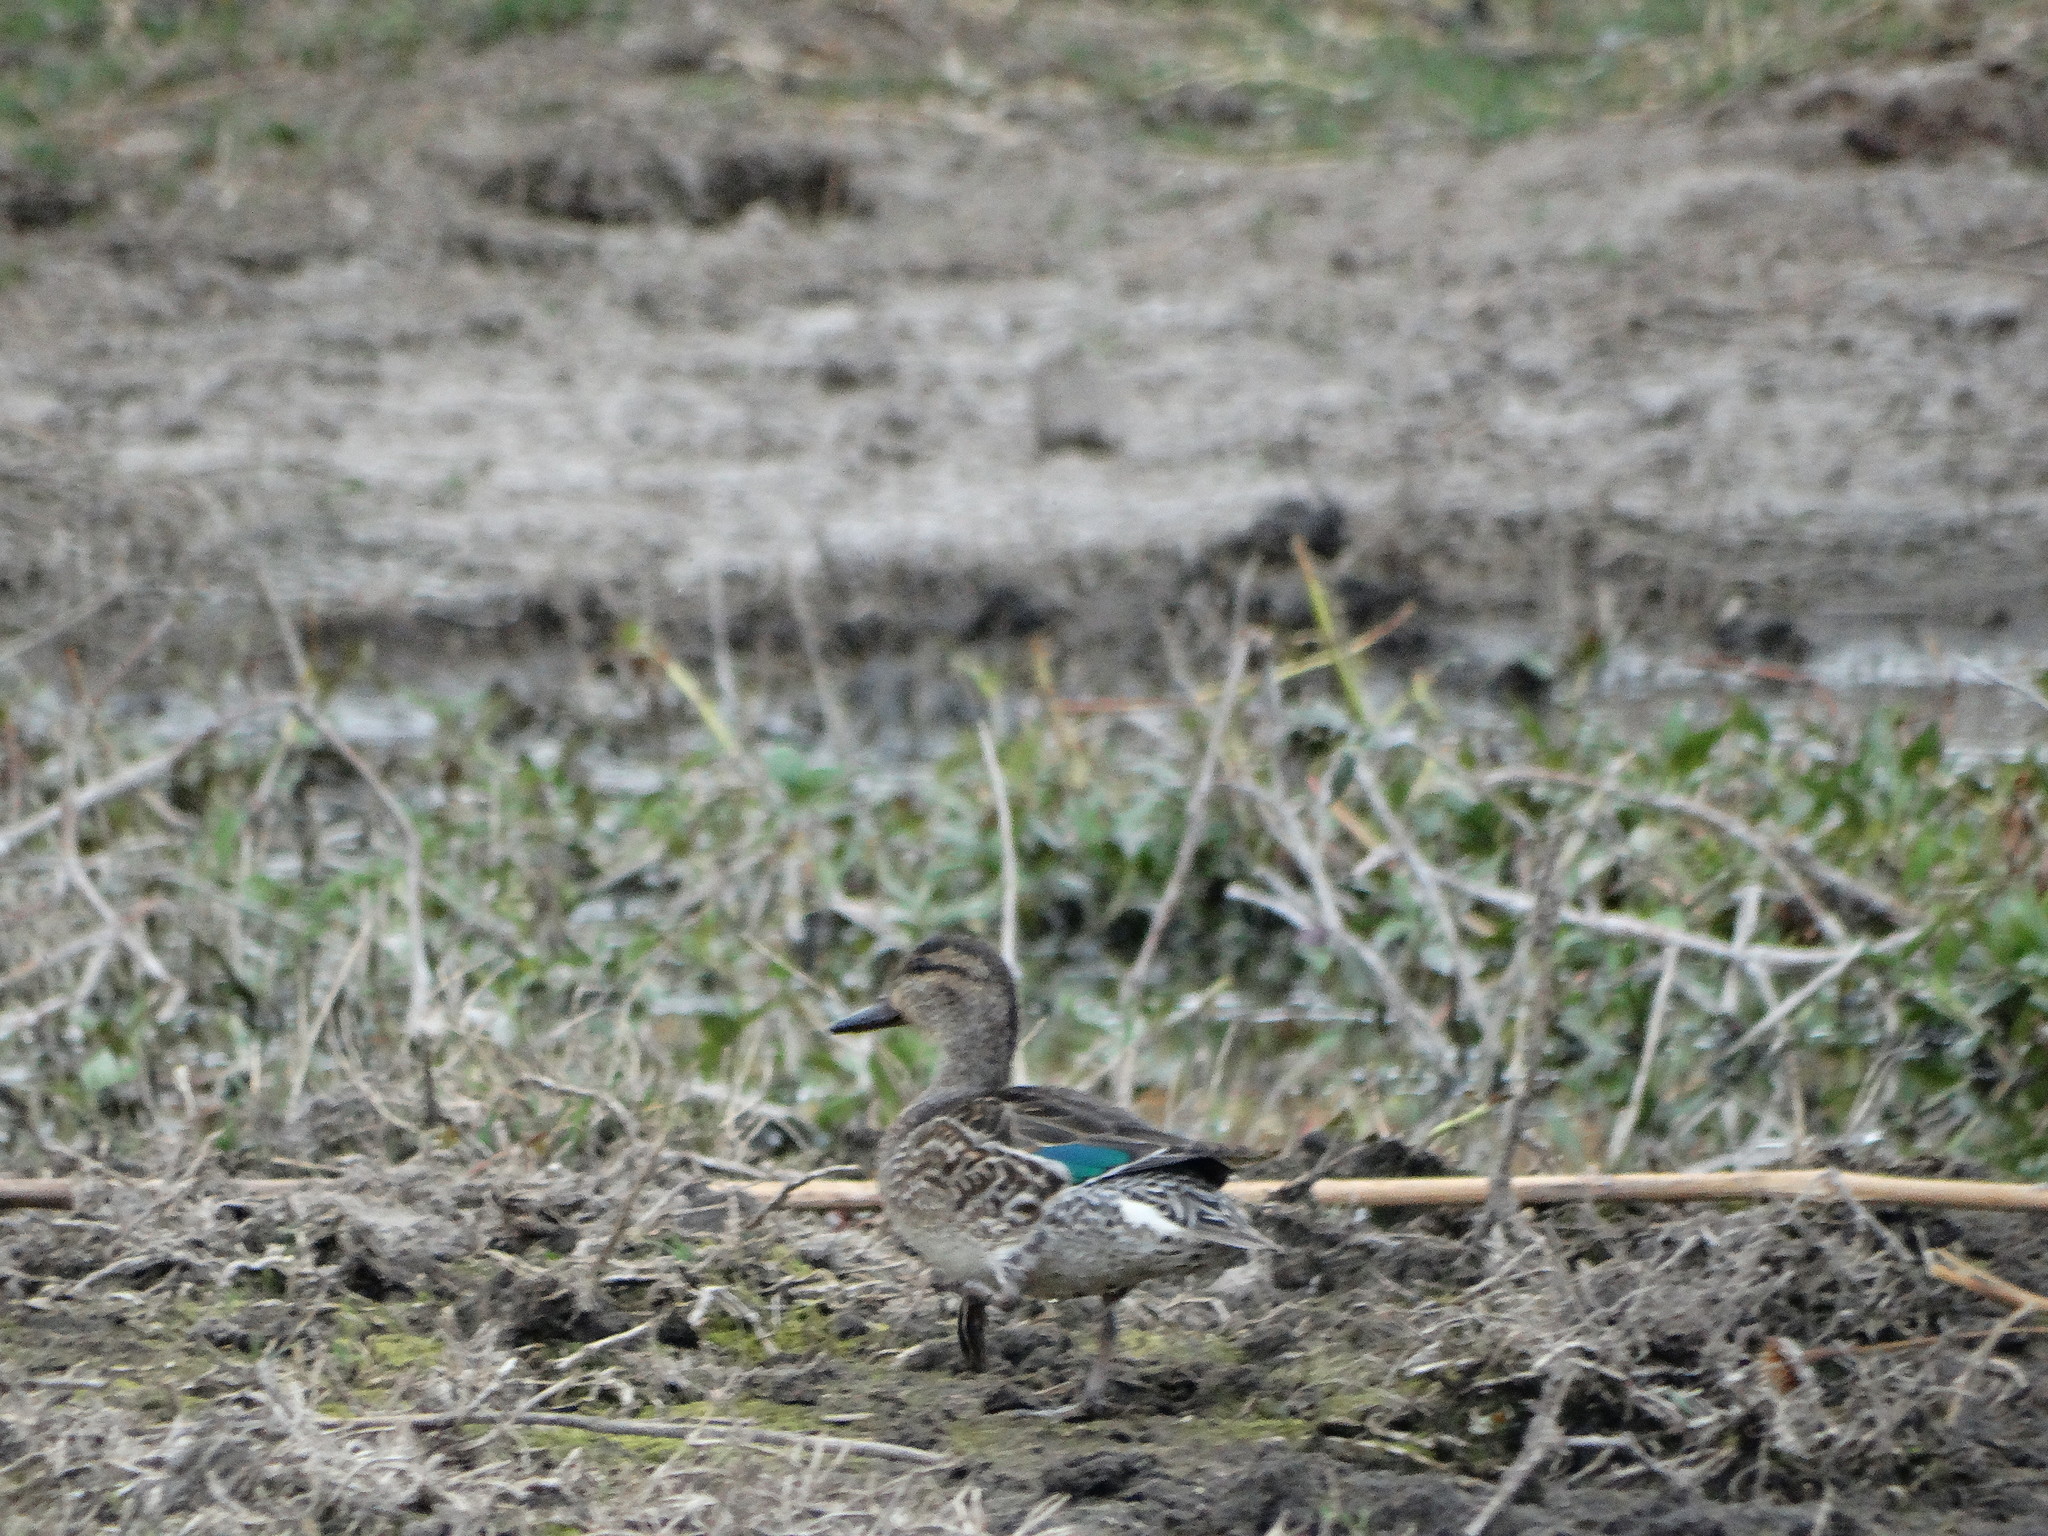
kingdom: Animalia
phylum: Chordata
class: Aves
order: Anseriformes
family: Anatidae
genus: Anas
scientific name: Anas carolinensis
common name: Green-winged teal
